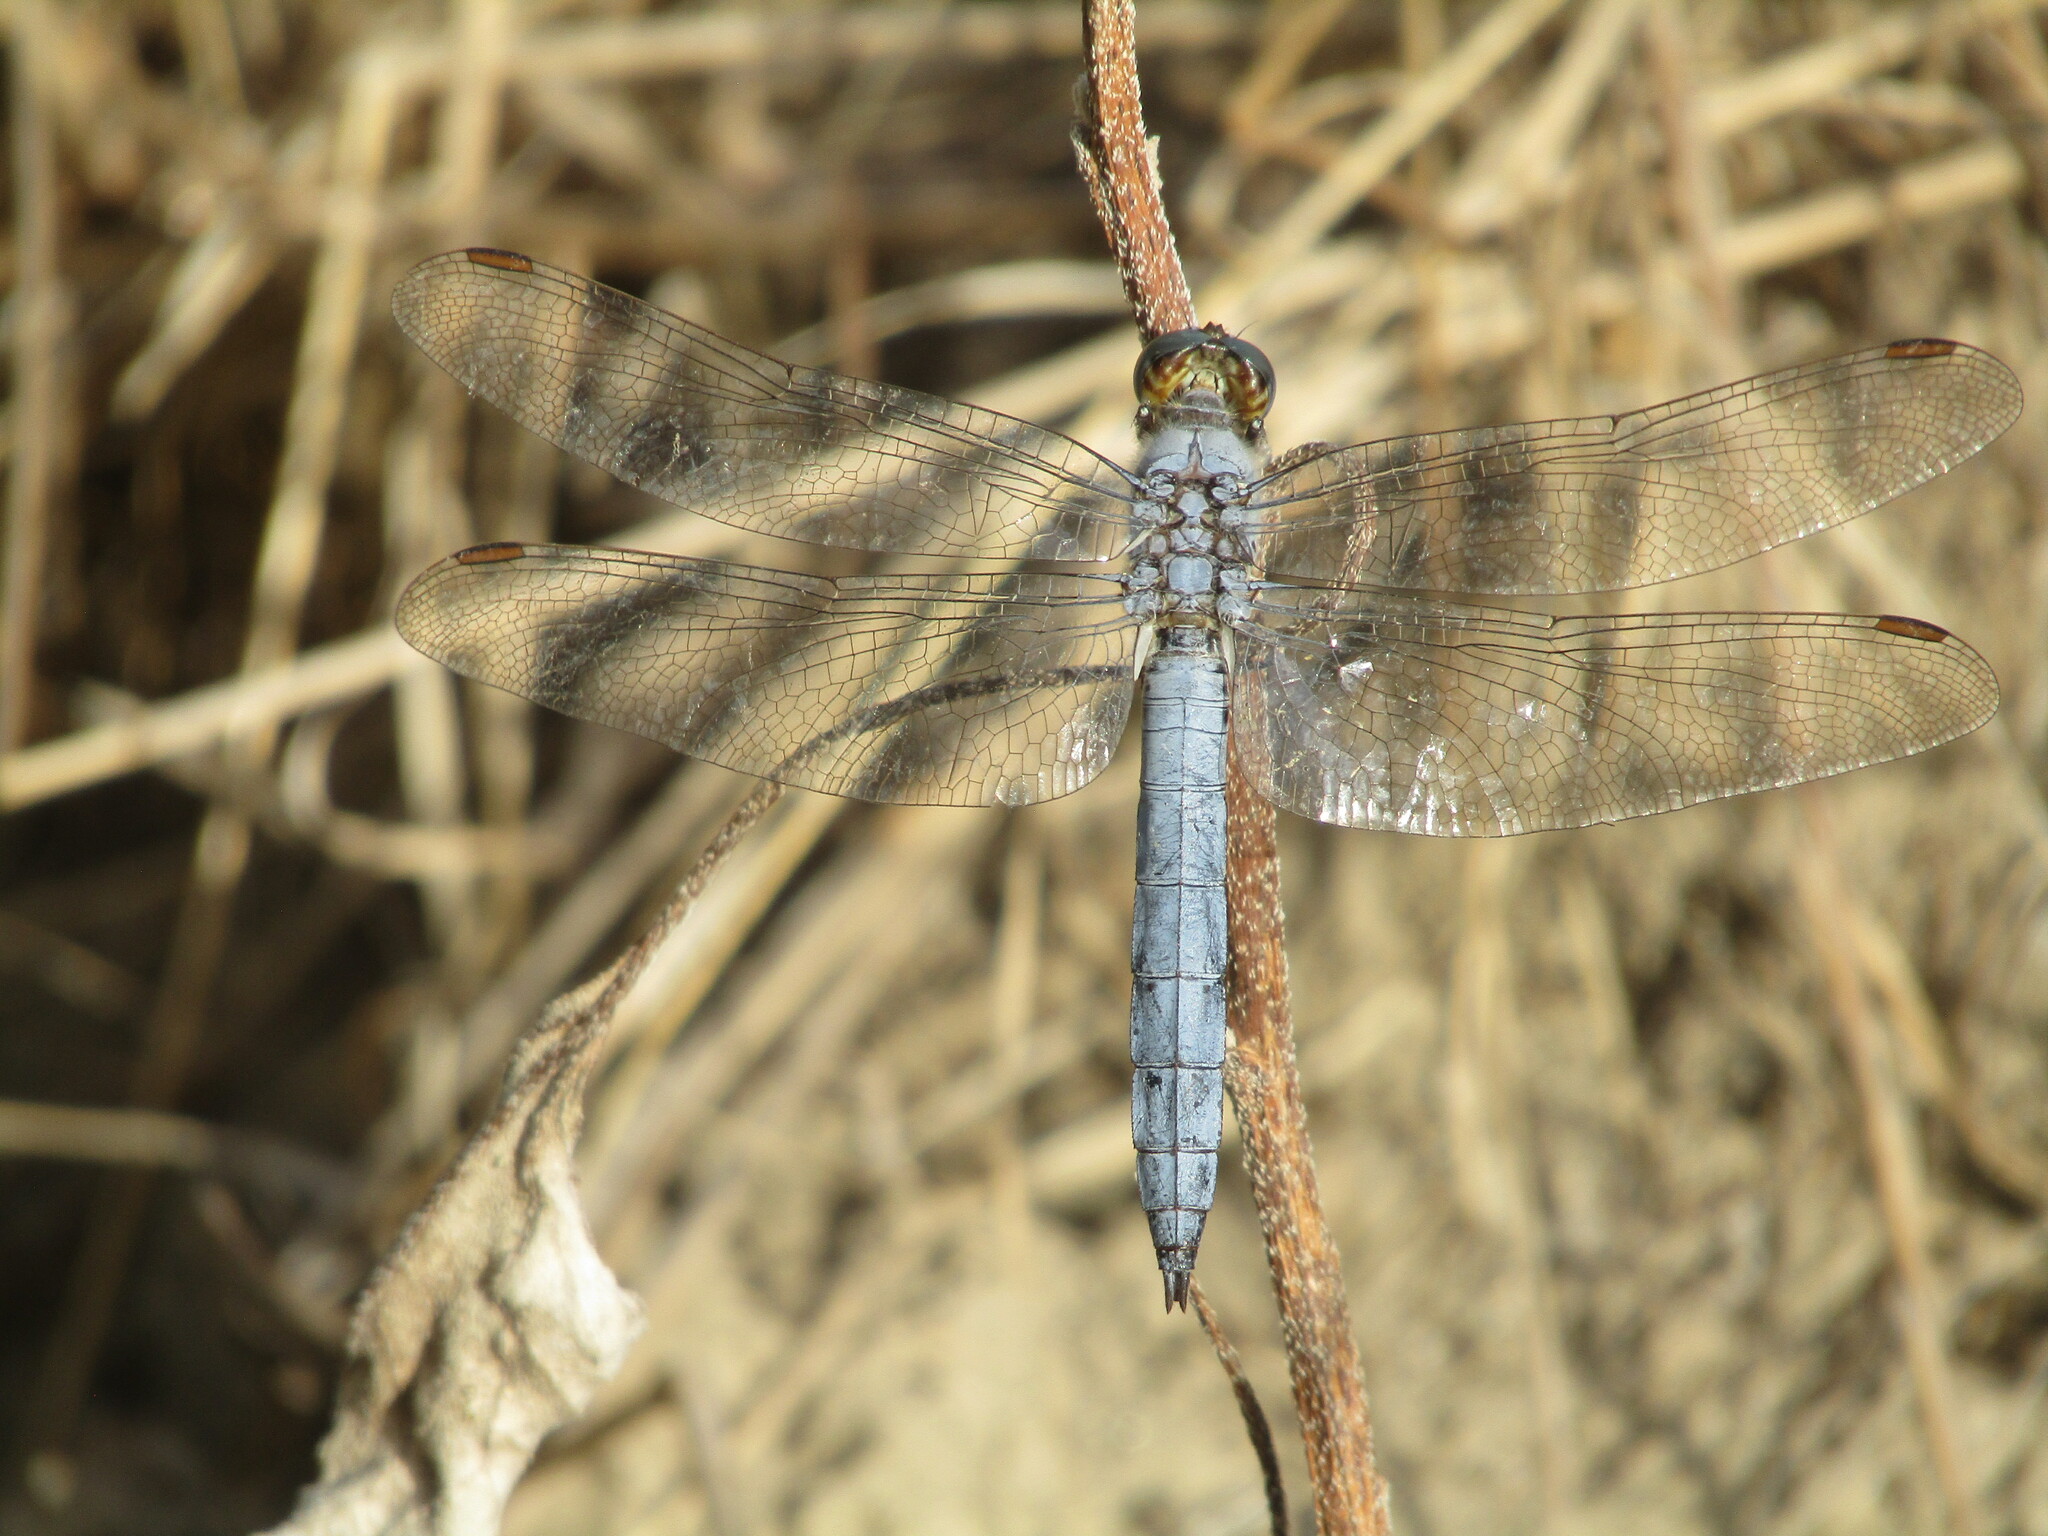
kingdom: Animalia
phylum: Arthropoda
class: Insecta
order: Odonata
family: Libellulidae
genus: Orthetrum
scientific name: Orthetrum brunneum
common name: Southern skimmer
